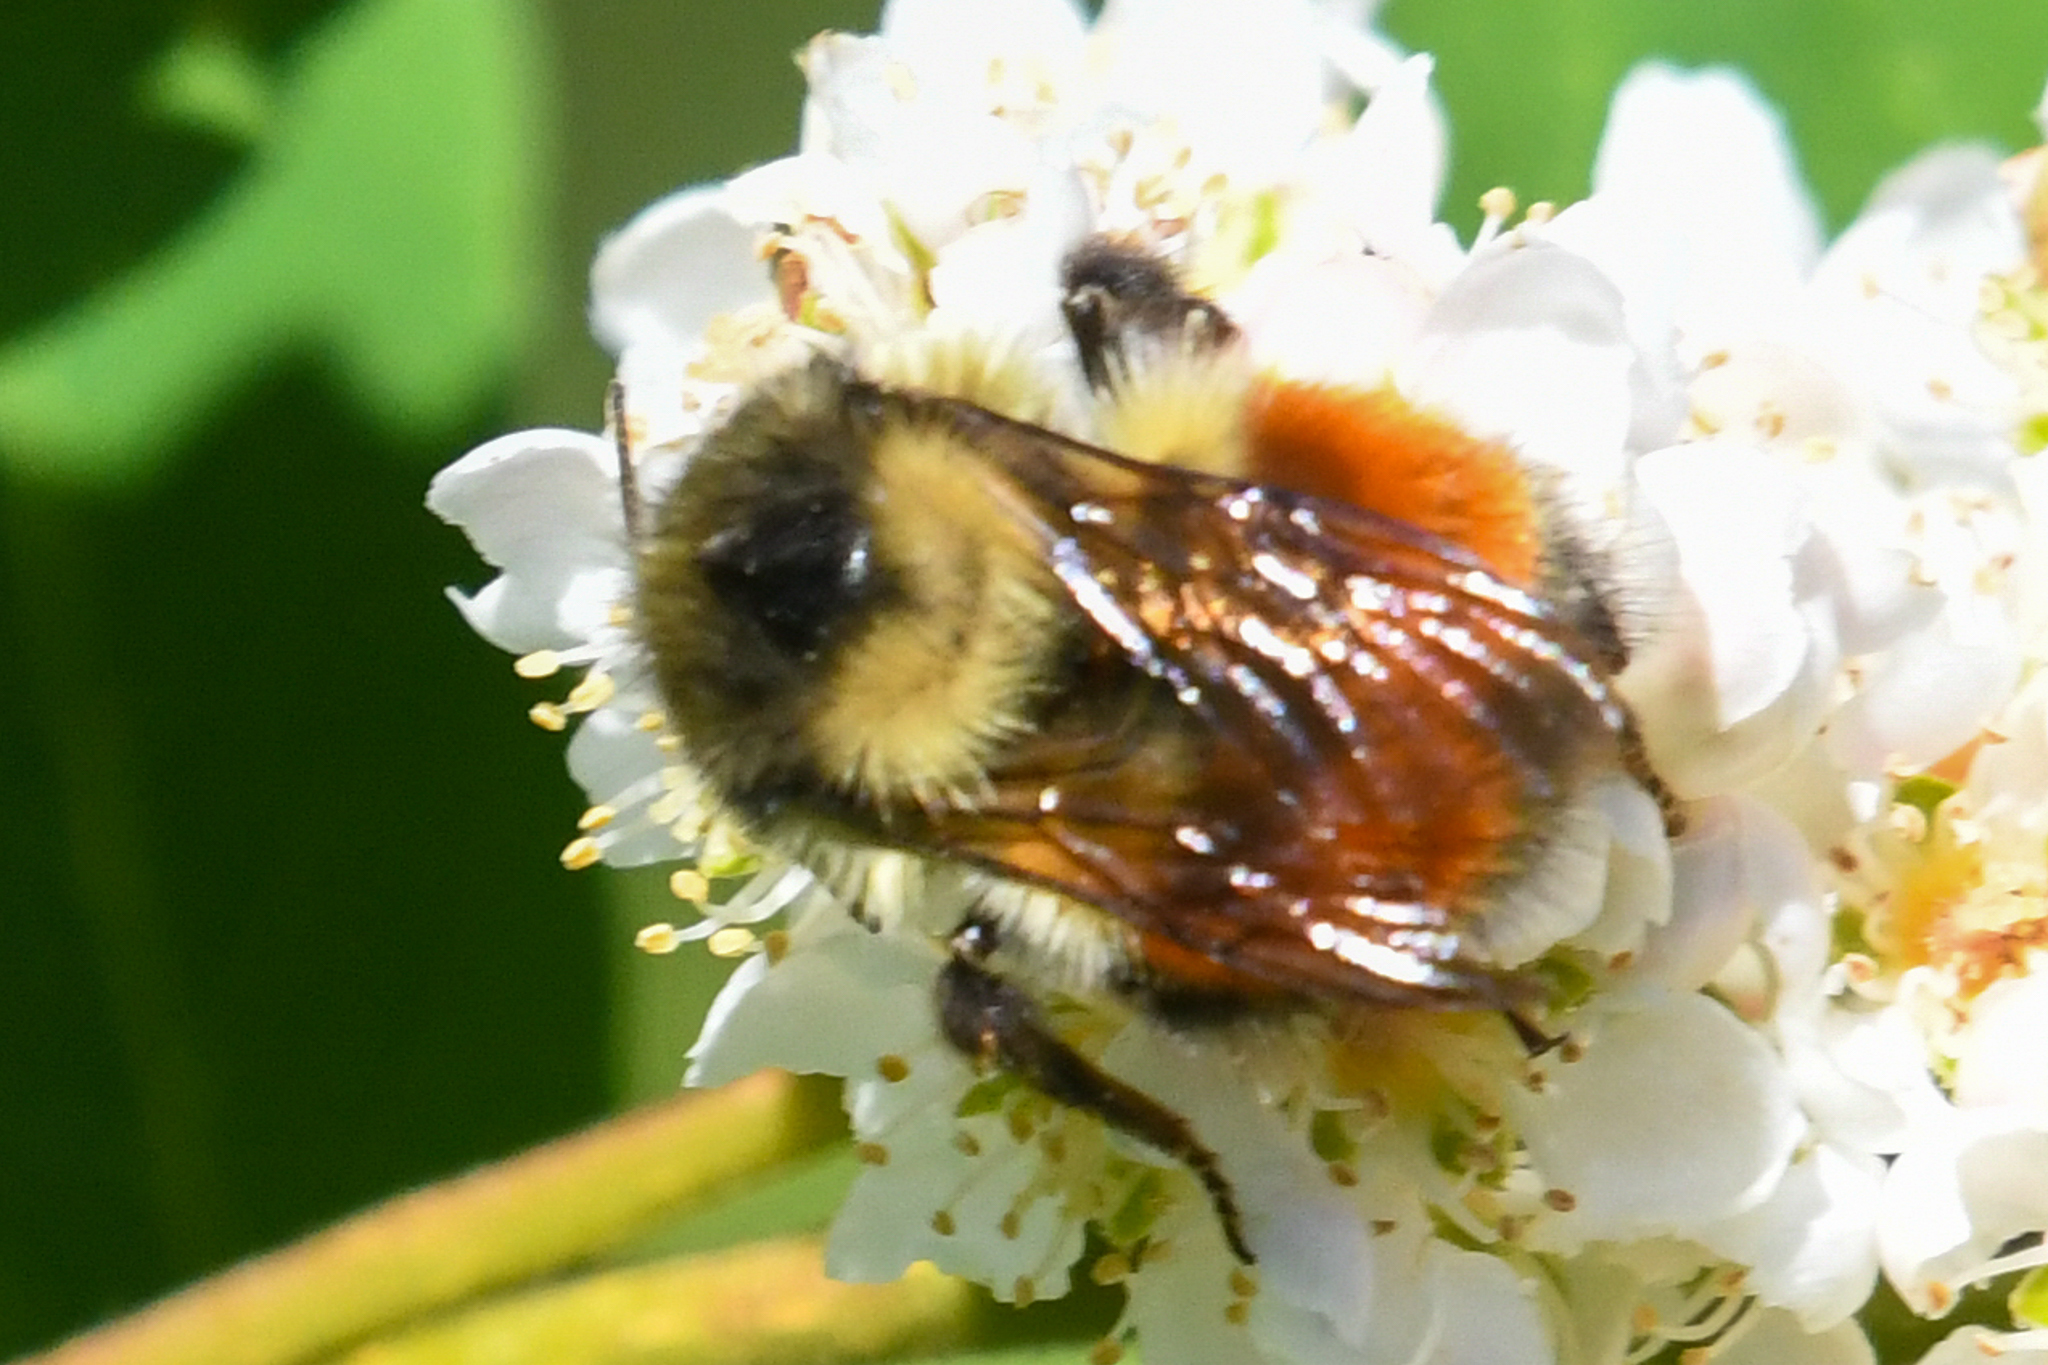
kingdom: Animalia
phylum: Arthropoda
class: Insecta
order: Hymenoptera
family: Apidae
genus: Bombus
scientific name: Bombus melanopygus
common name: Black tail bumble bee
